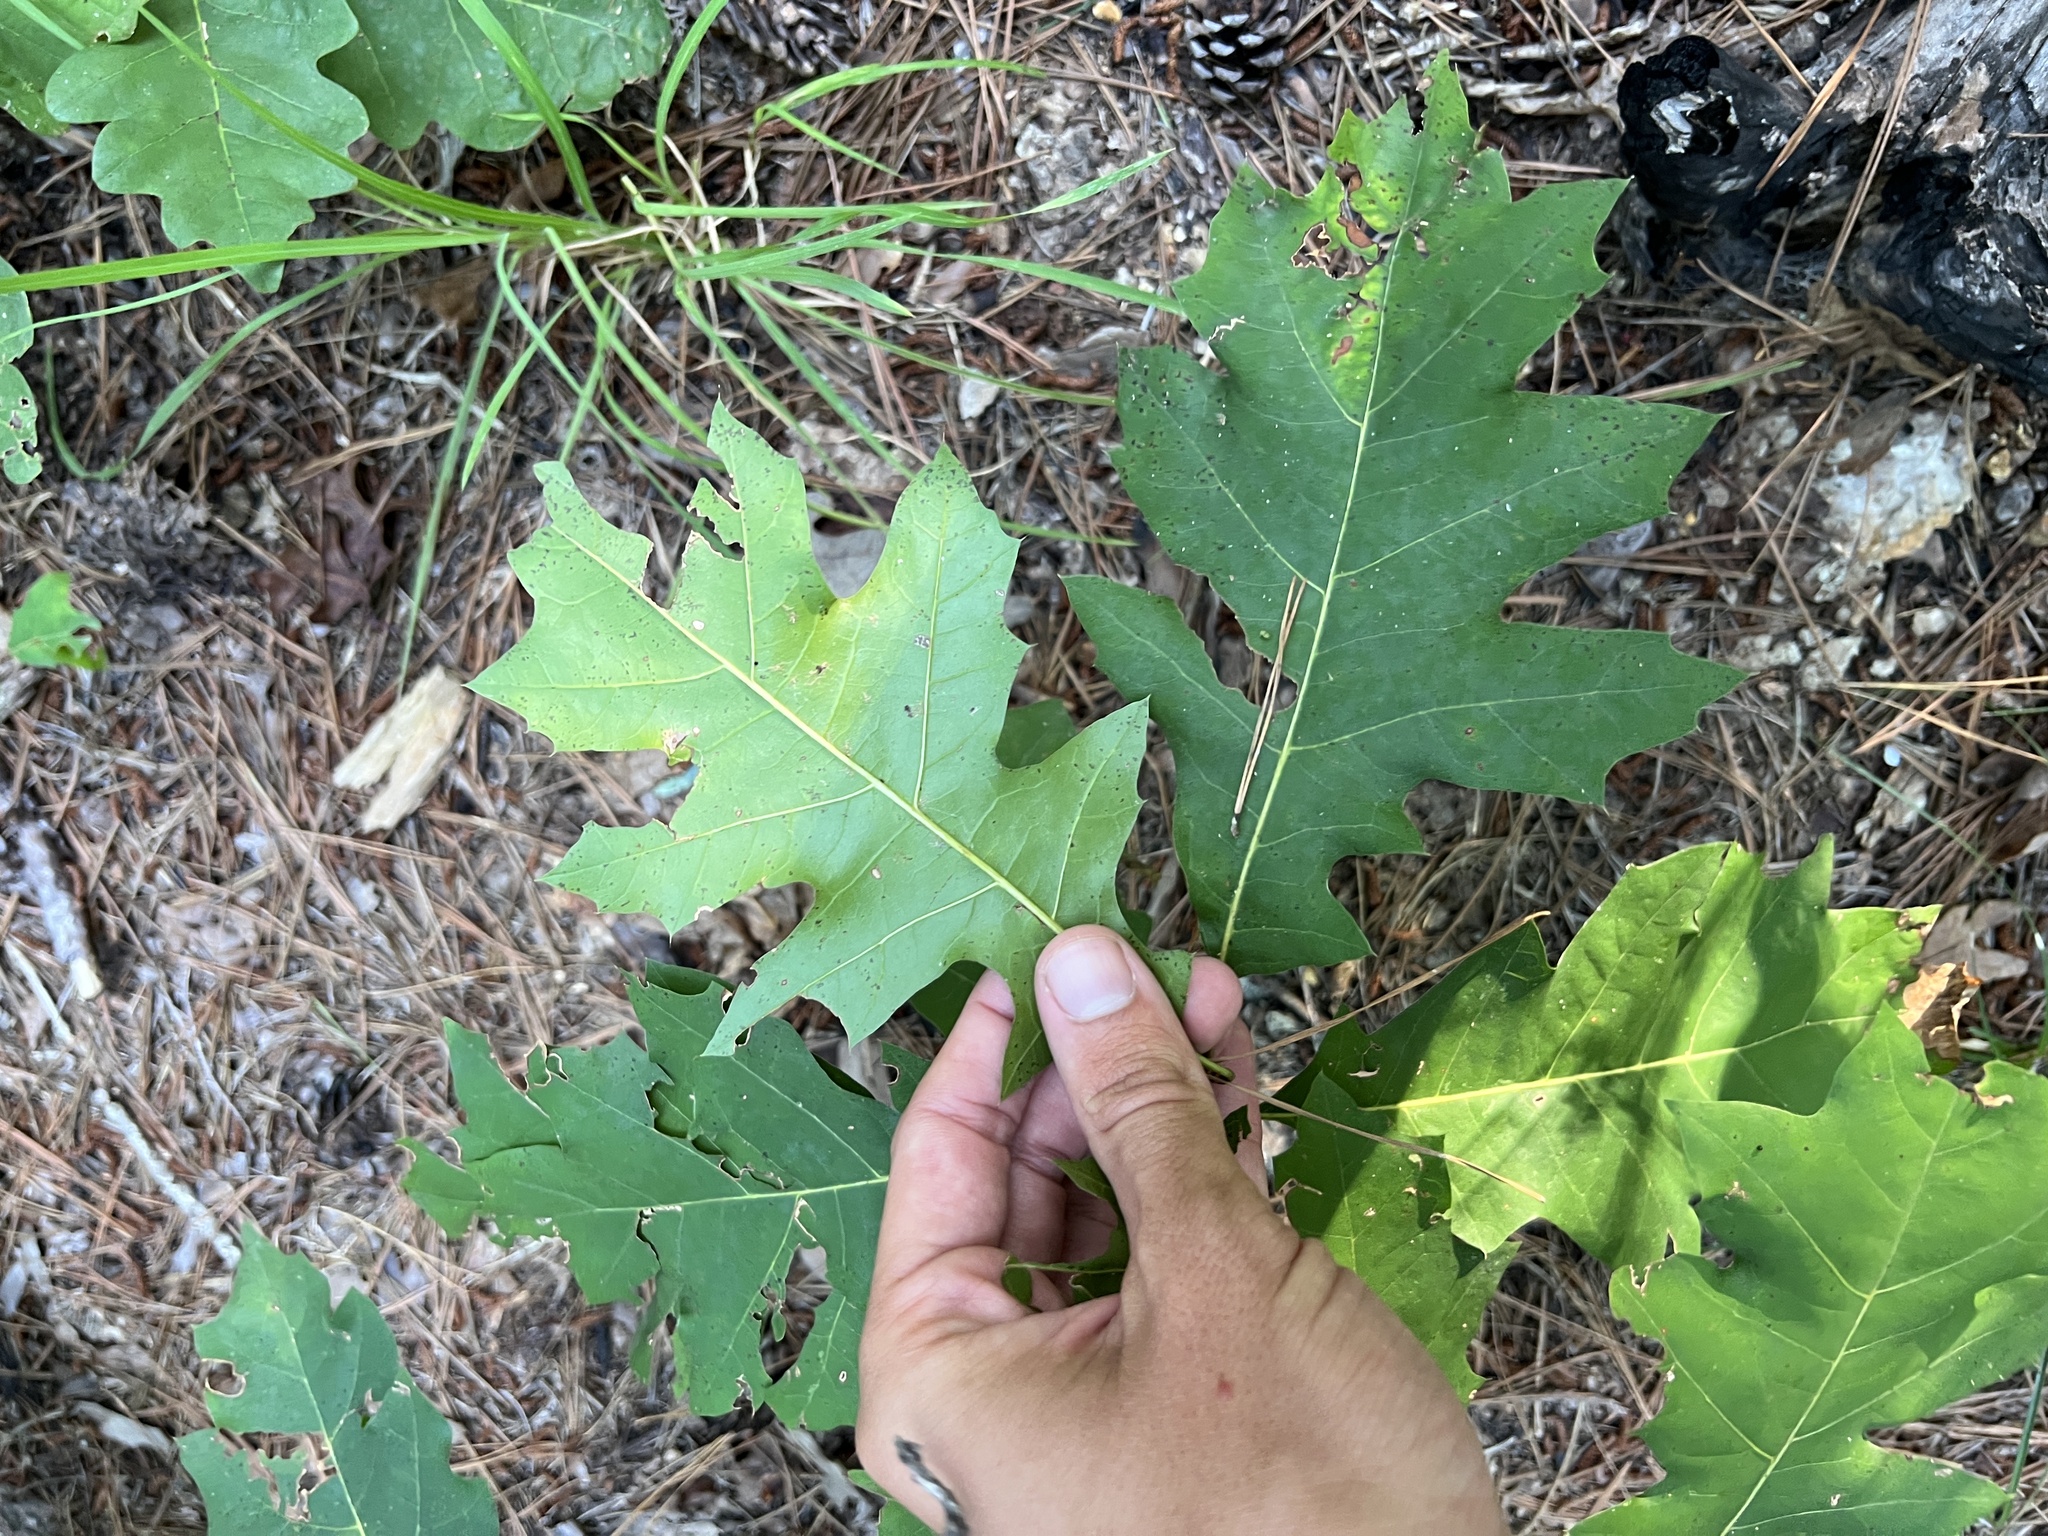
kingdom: Plantae
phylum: Tracheophyta
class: Magnoliopsida
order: Fagales
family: Fagaceae
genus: Quercus
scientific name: Quercus coccinea
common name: Scarlet oak
